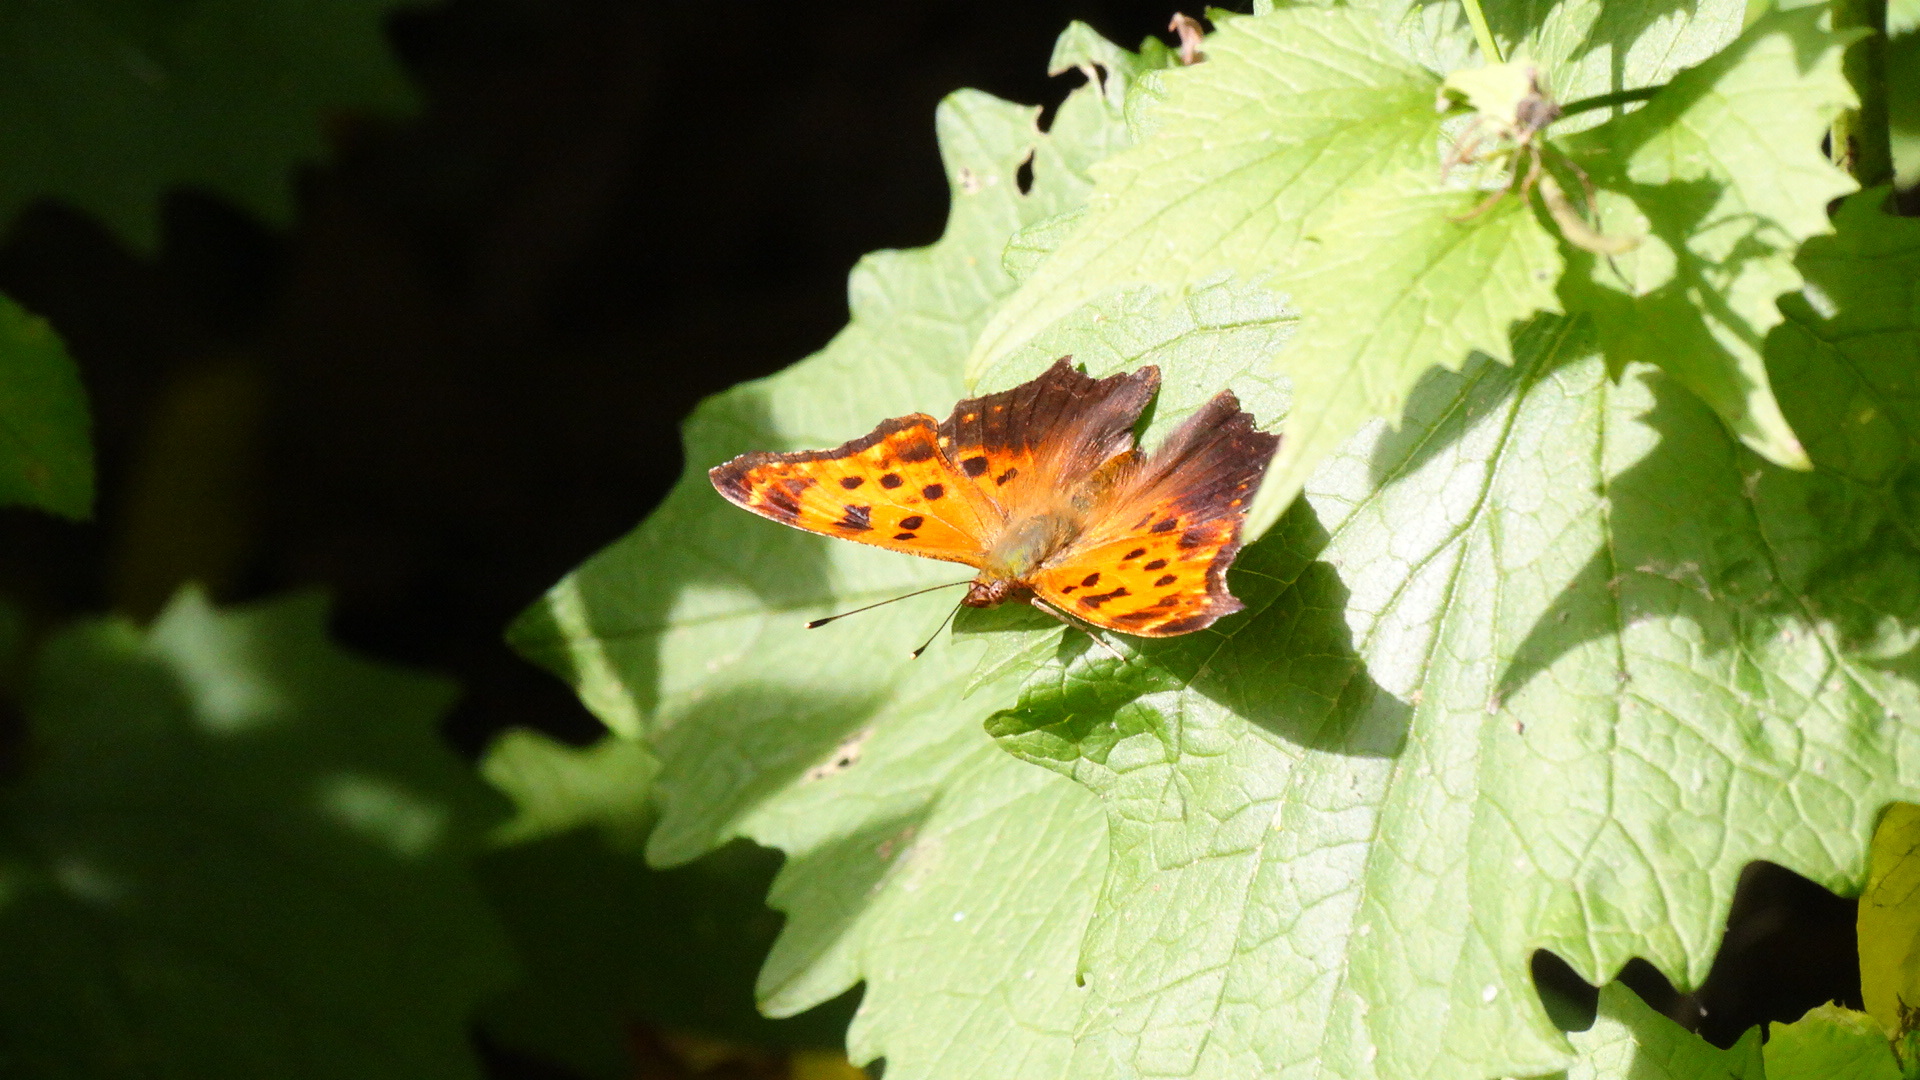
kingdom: Animalia
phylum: Arthropoda
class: Insecta
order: Lepidoptera
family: Nymphalidae
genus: Polygonia
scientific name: Polygonia comma
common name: Eastern comma
